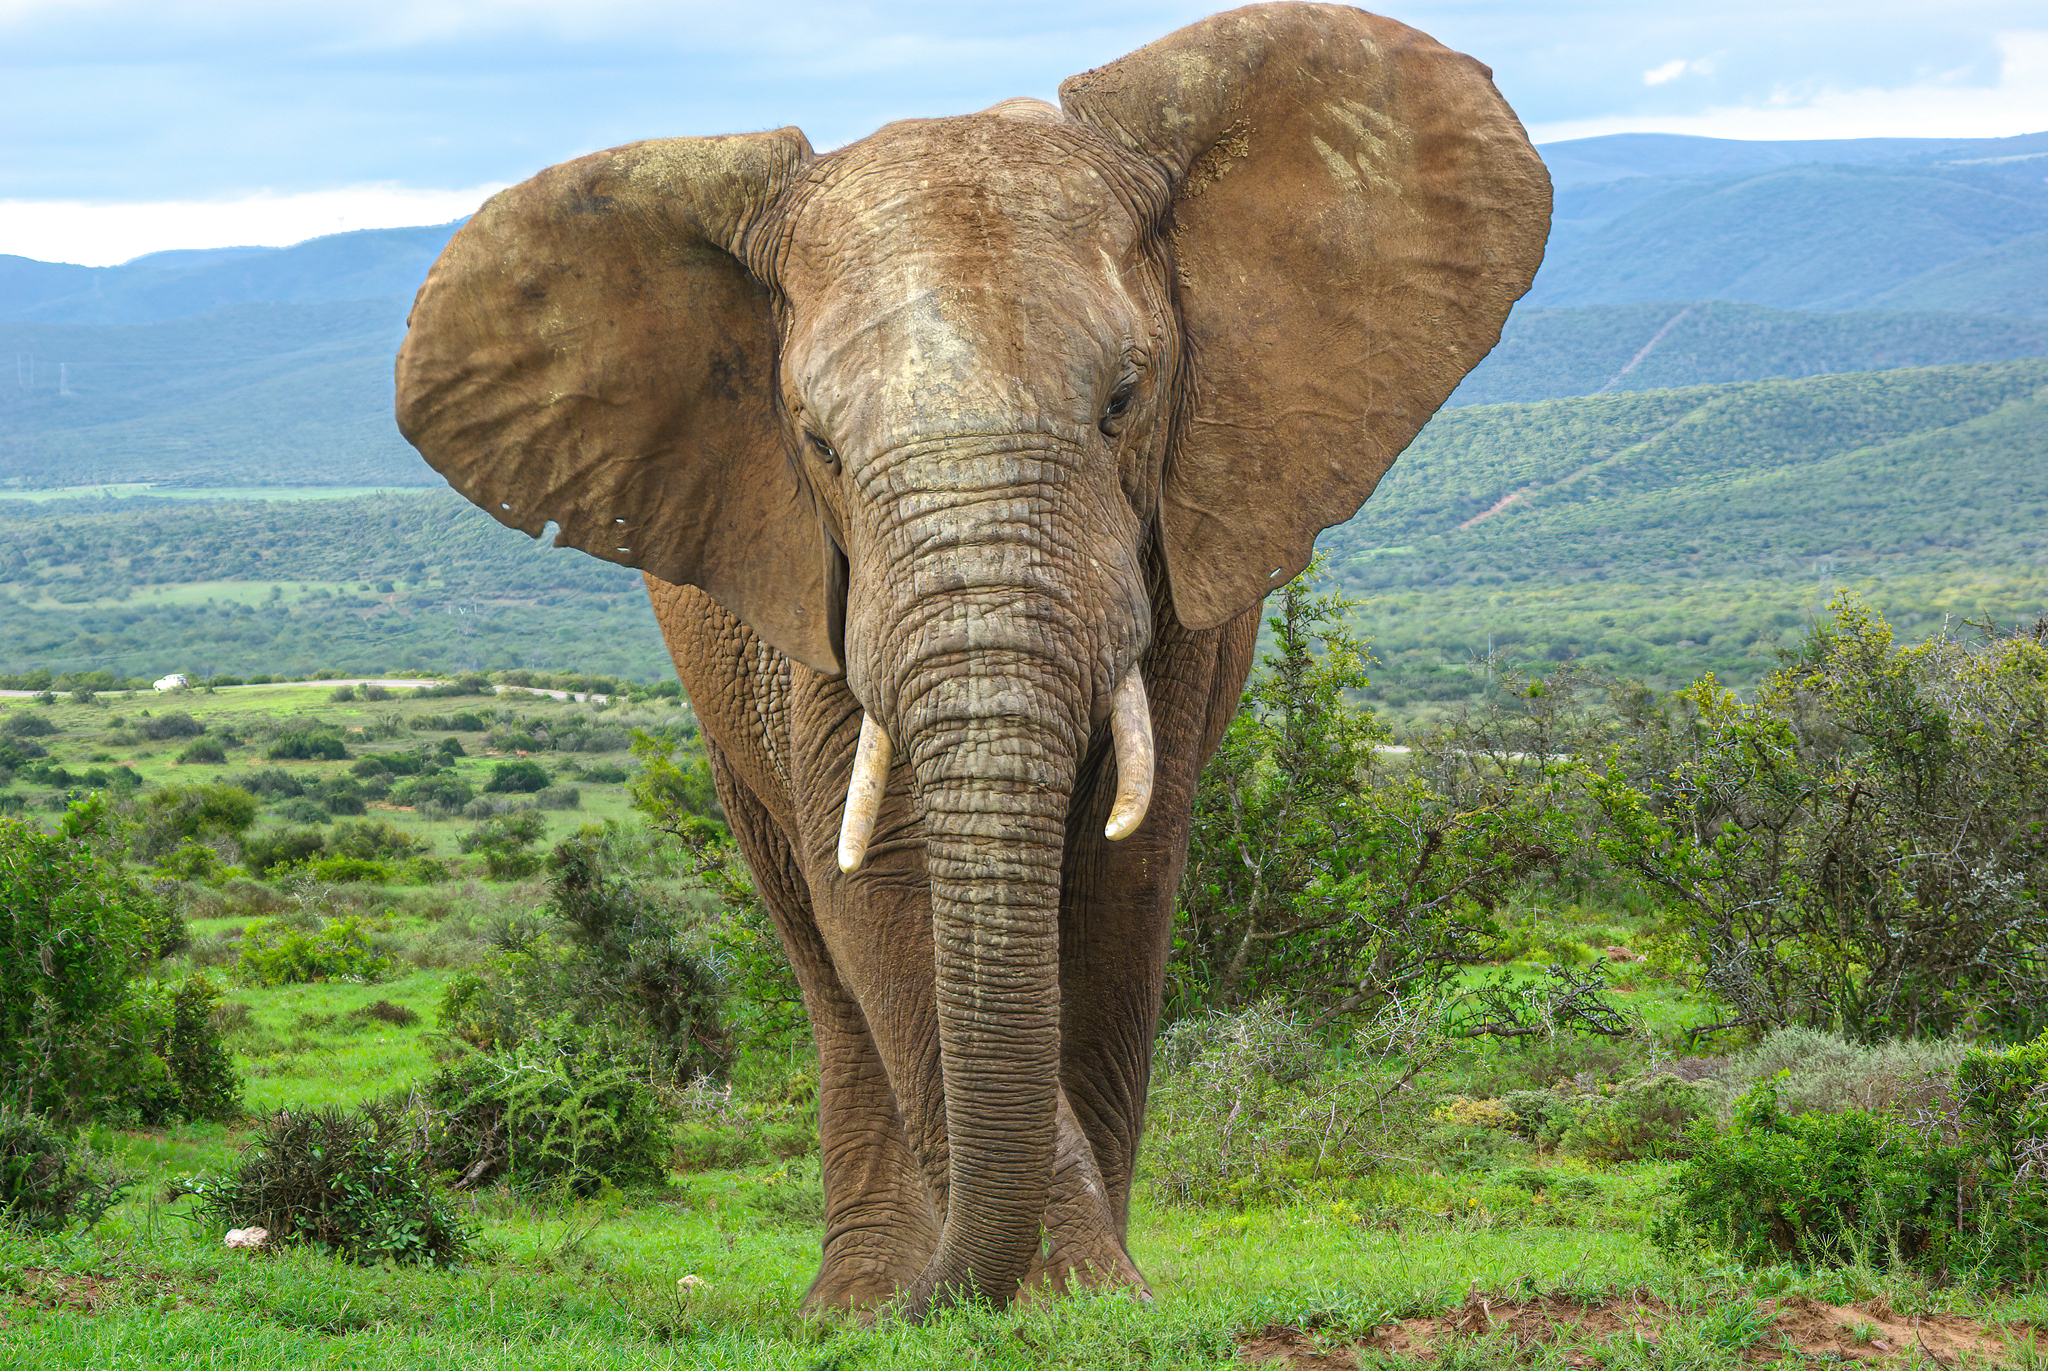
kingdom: Animalia
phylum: Chordata
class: Mammalia
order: Proboscidea
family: Elephantidae
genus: Loxodonta
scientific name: Loxodonta africana
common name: African elephant
